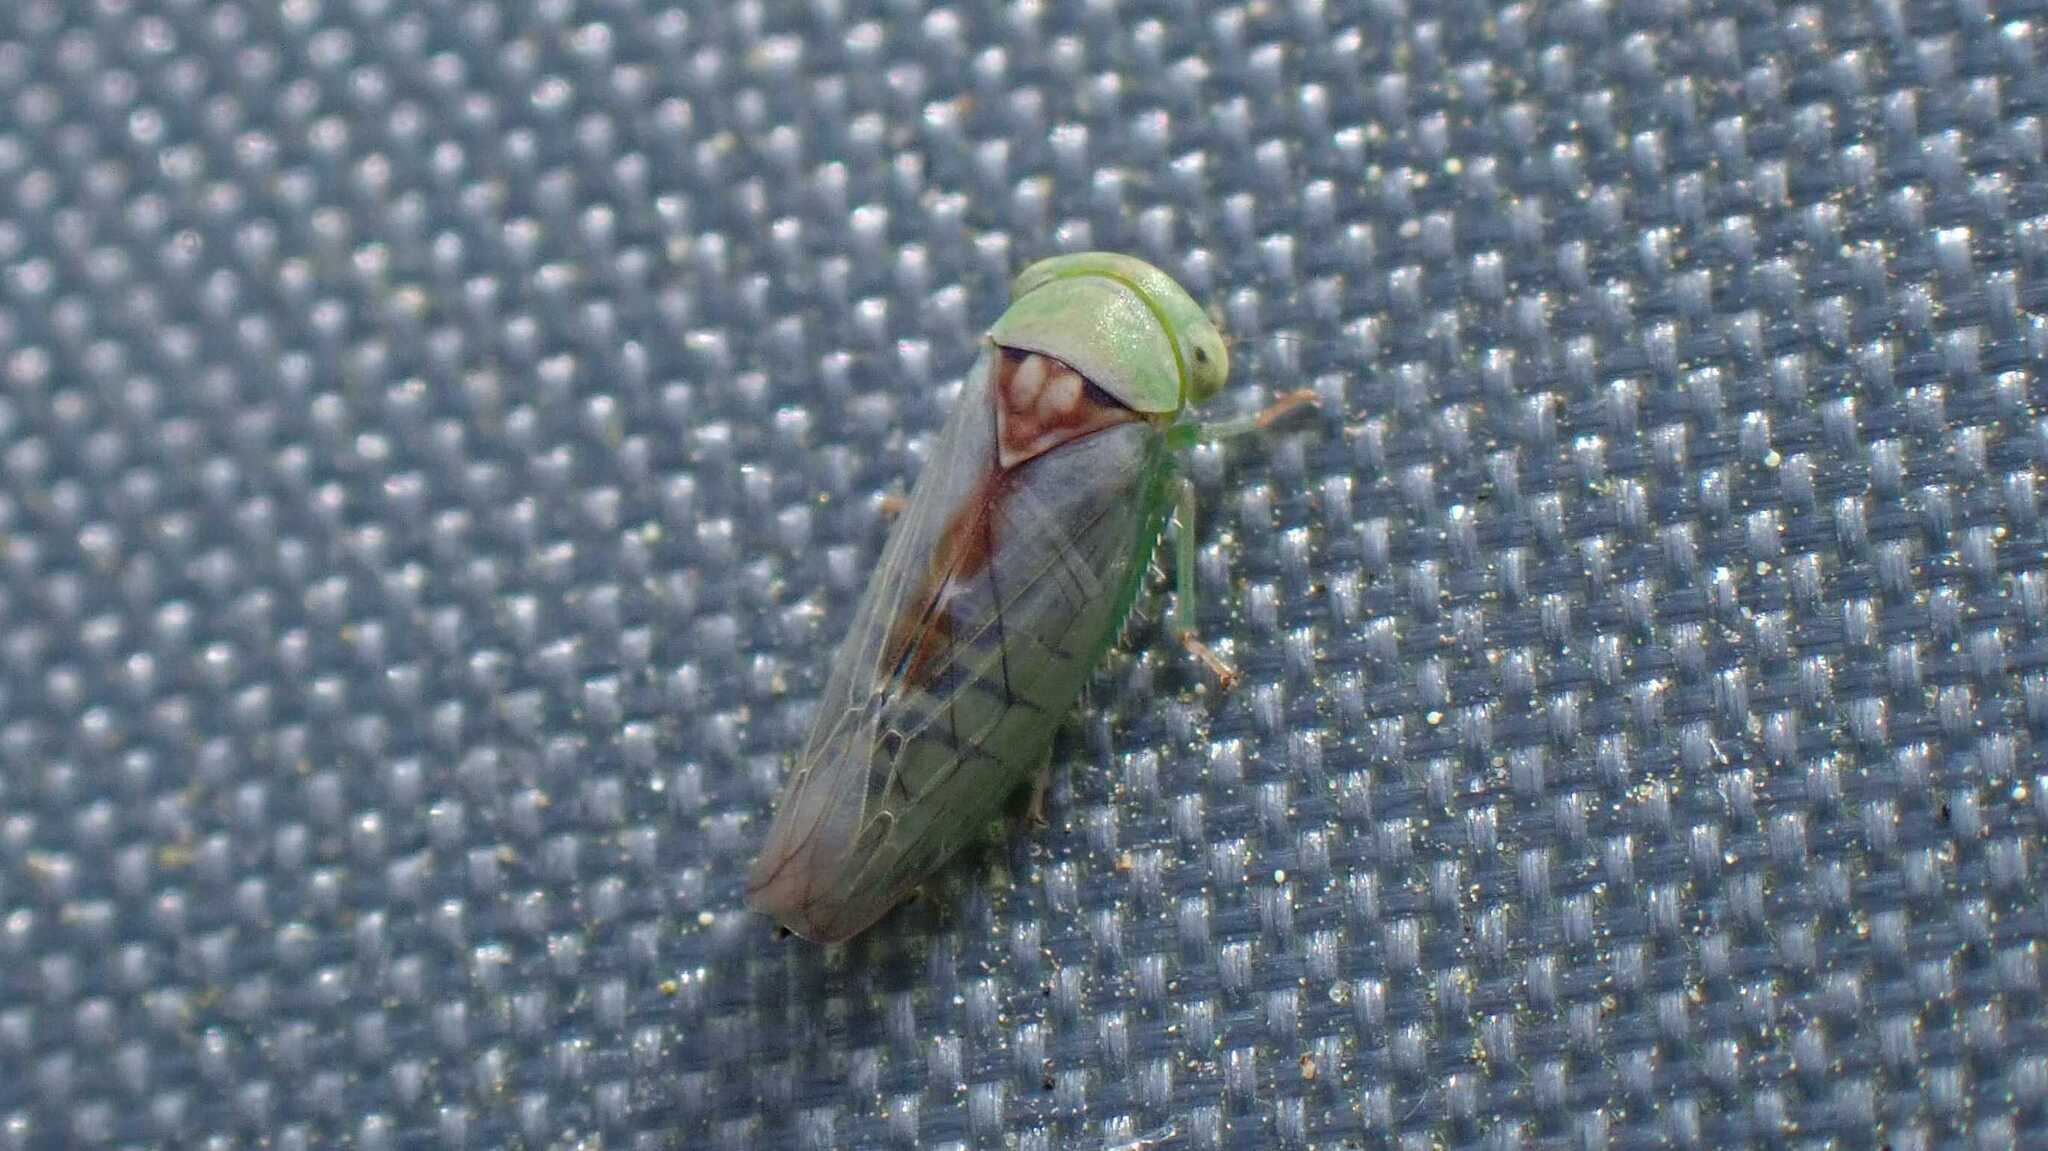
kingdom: Animalia
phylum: Arthropoda
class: Insecta
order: Hemiptera
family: Cicadellidae
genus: Viridicerus
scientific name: Viridicerus ustulatus
